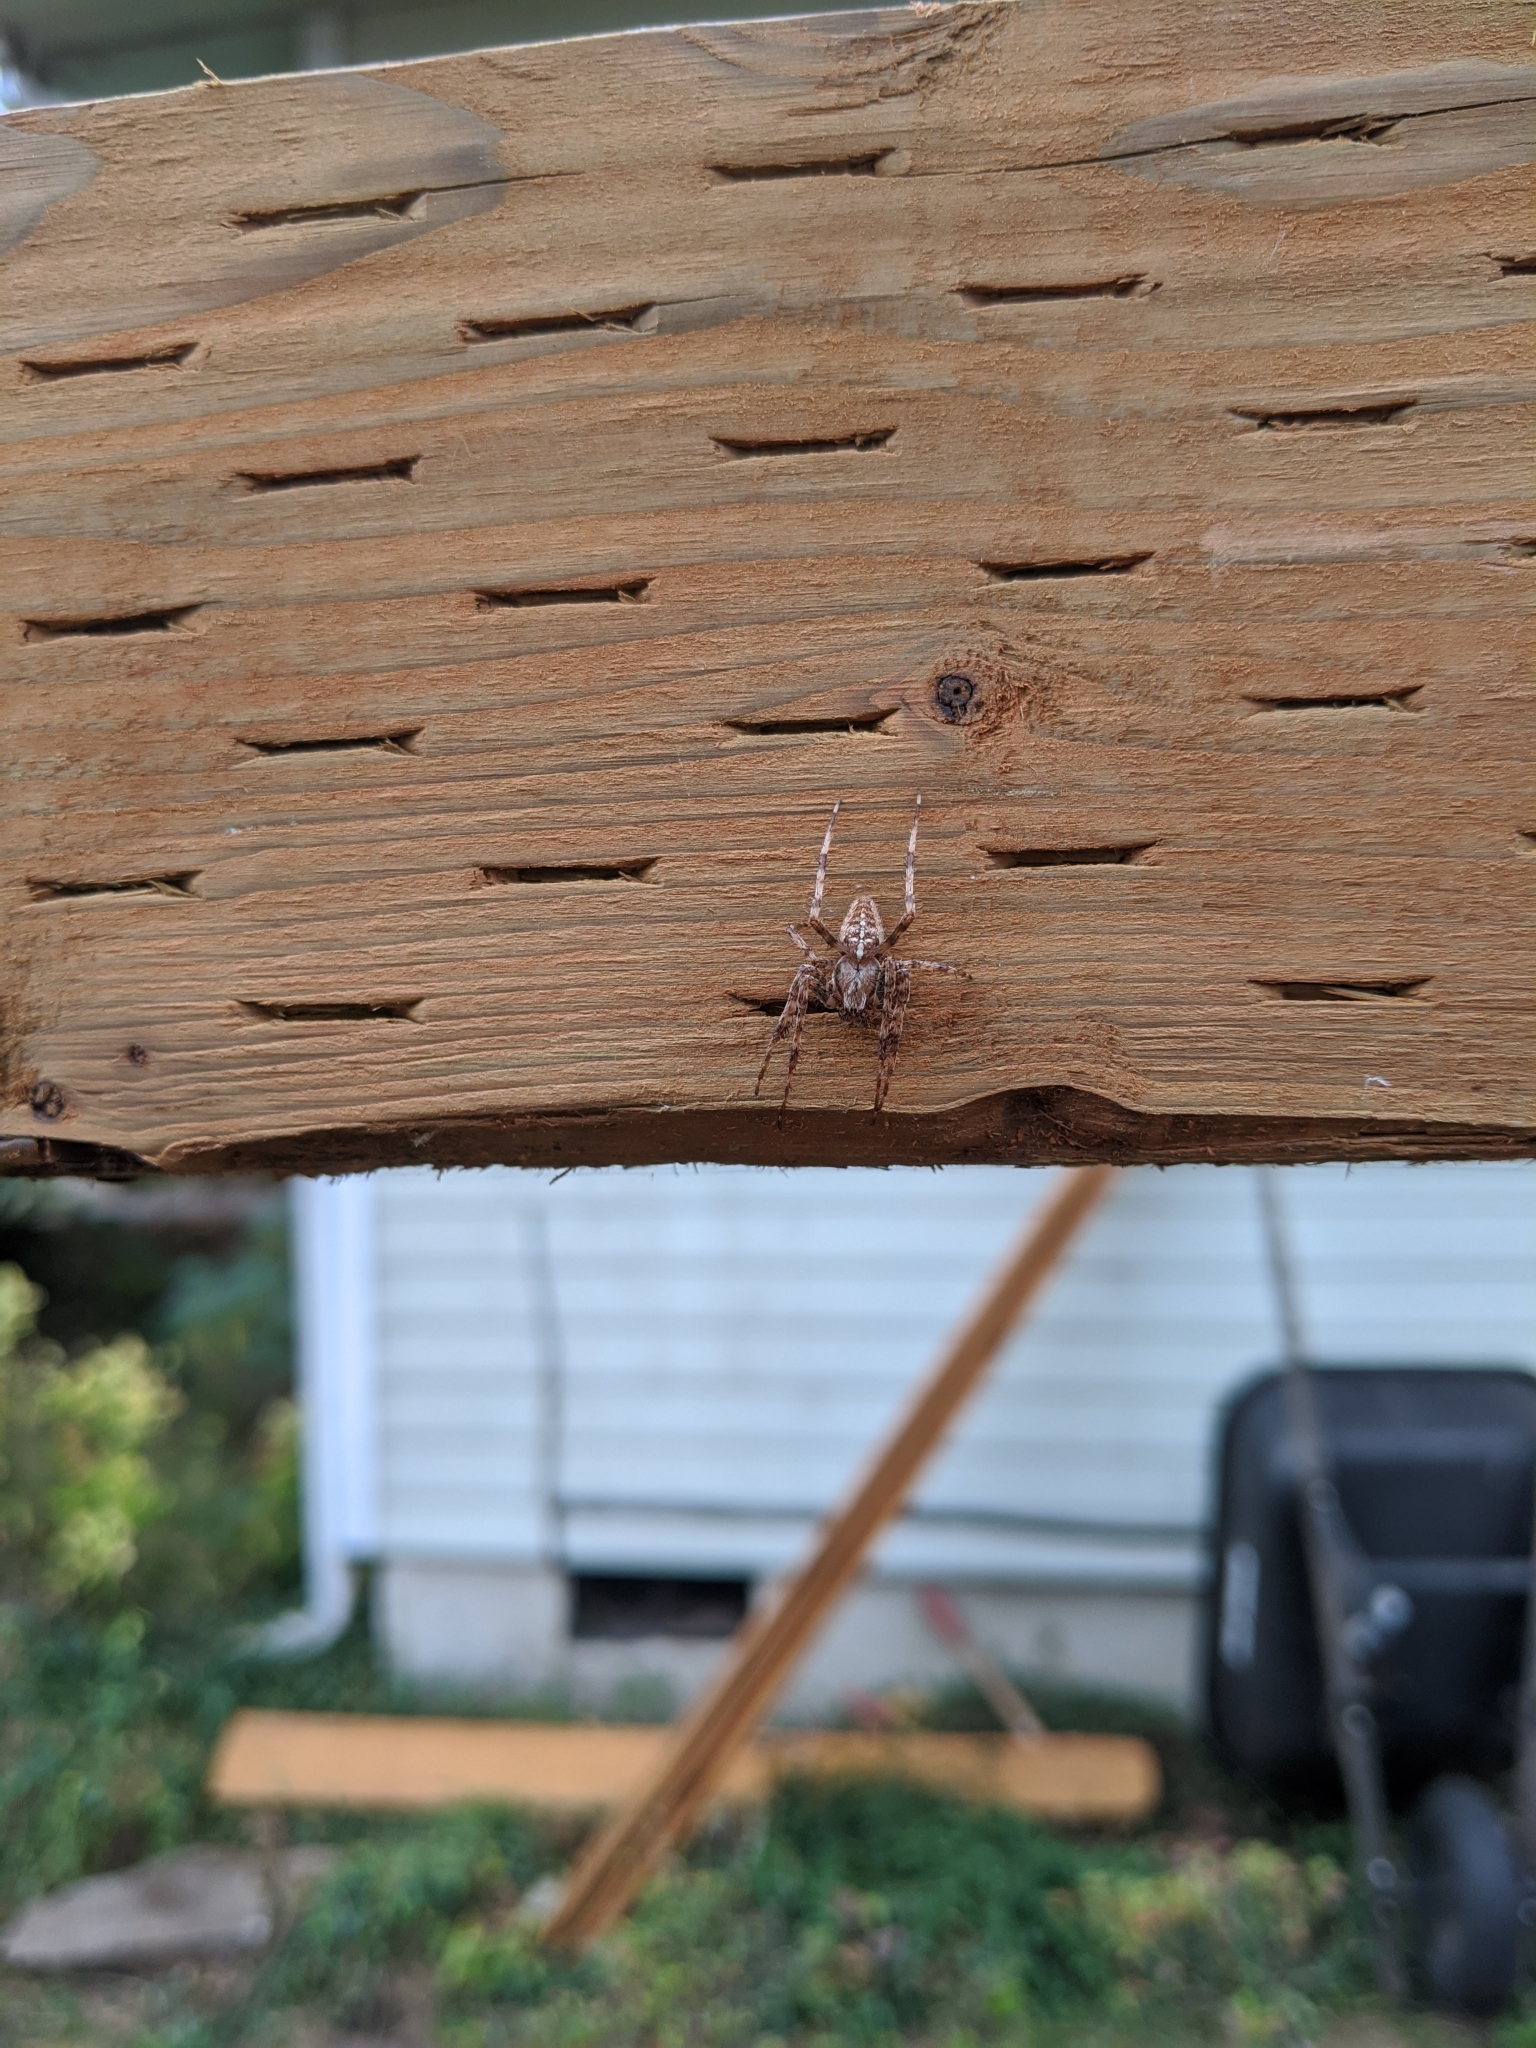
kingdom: Animalia
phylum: Arthropoda
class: Arachnida
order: Araneae
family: Araneidae
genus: Araneus
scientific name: Araneus diadematus
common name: Cross orbweaver
